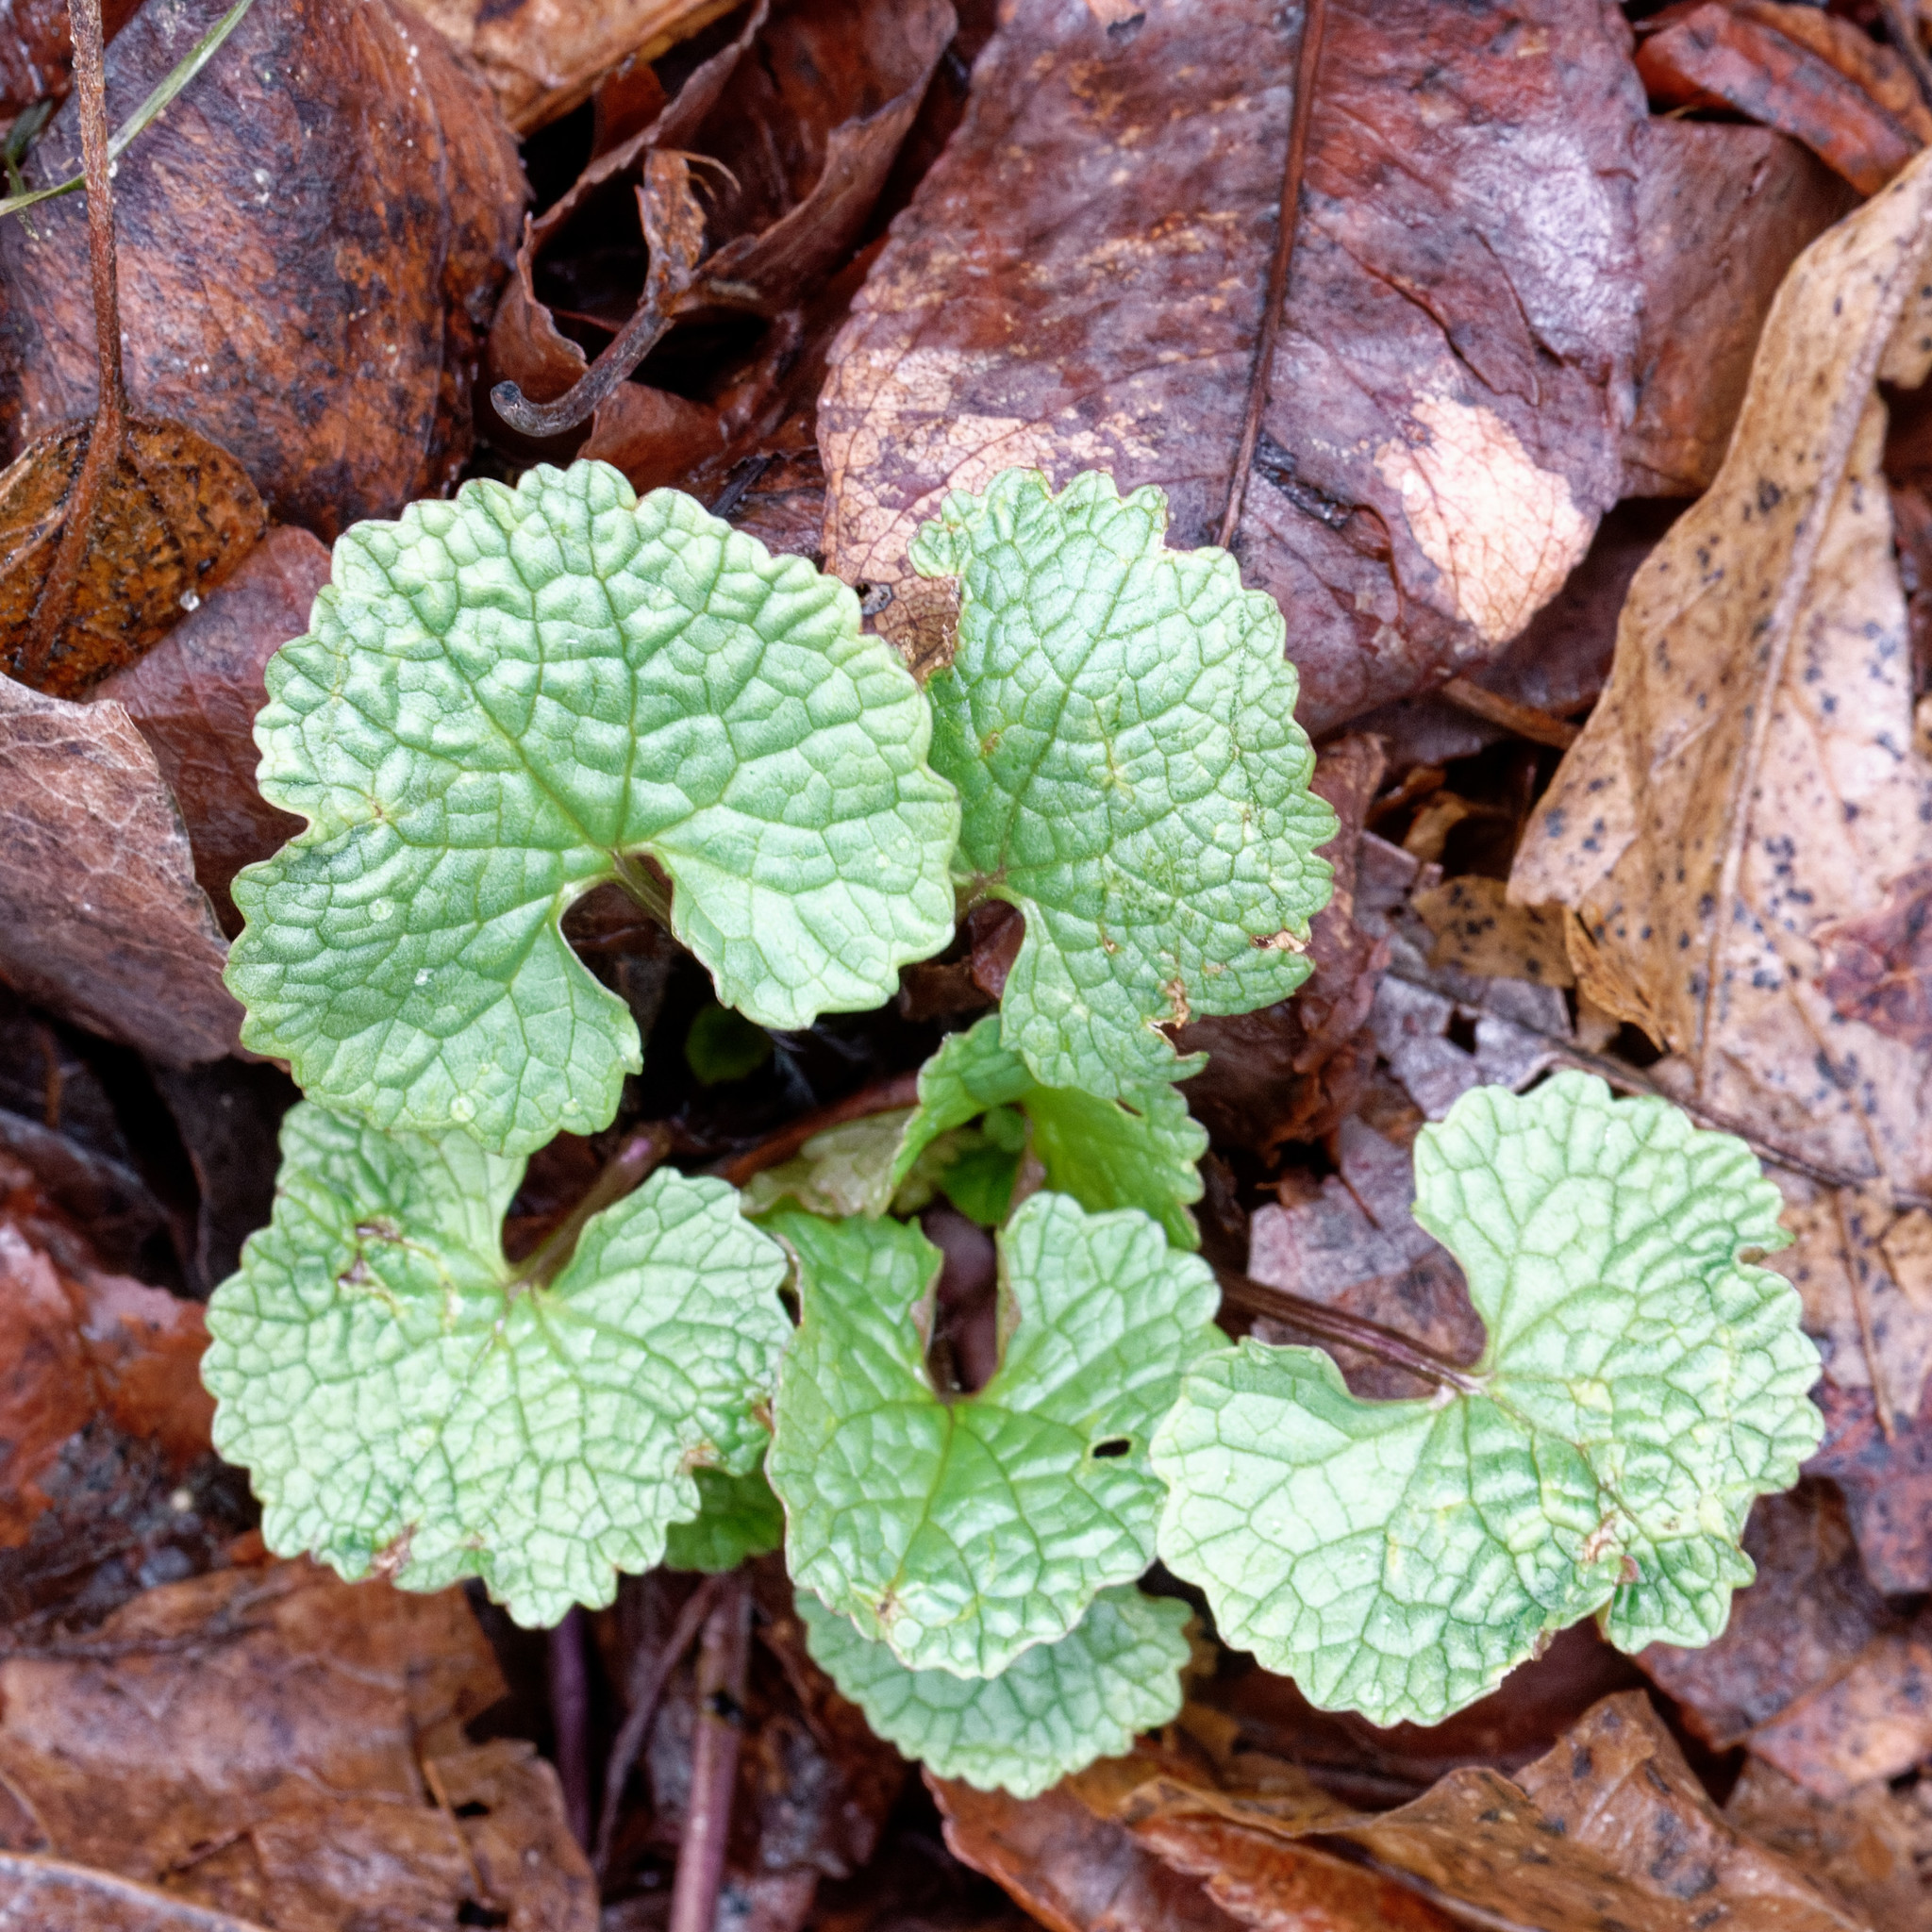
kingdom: Plantae
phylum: Tracheophyta
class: Magnoliopsida
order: Brassicales
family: Brassicaceae
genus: Alliaria
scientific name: Alliaria petiolata
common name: Garlic mustard
